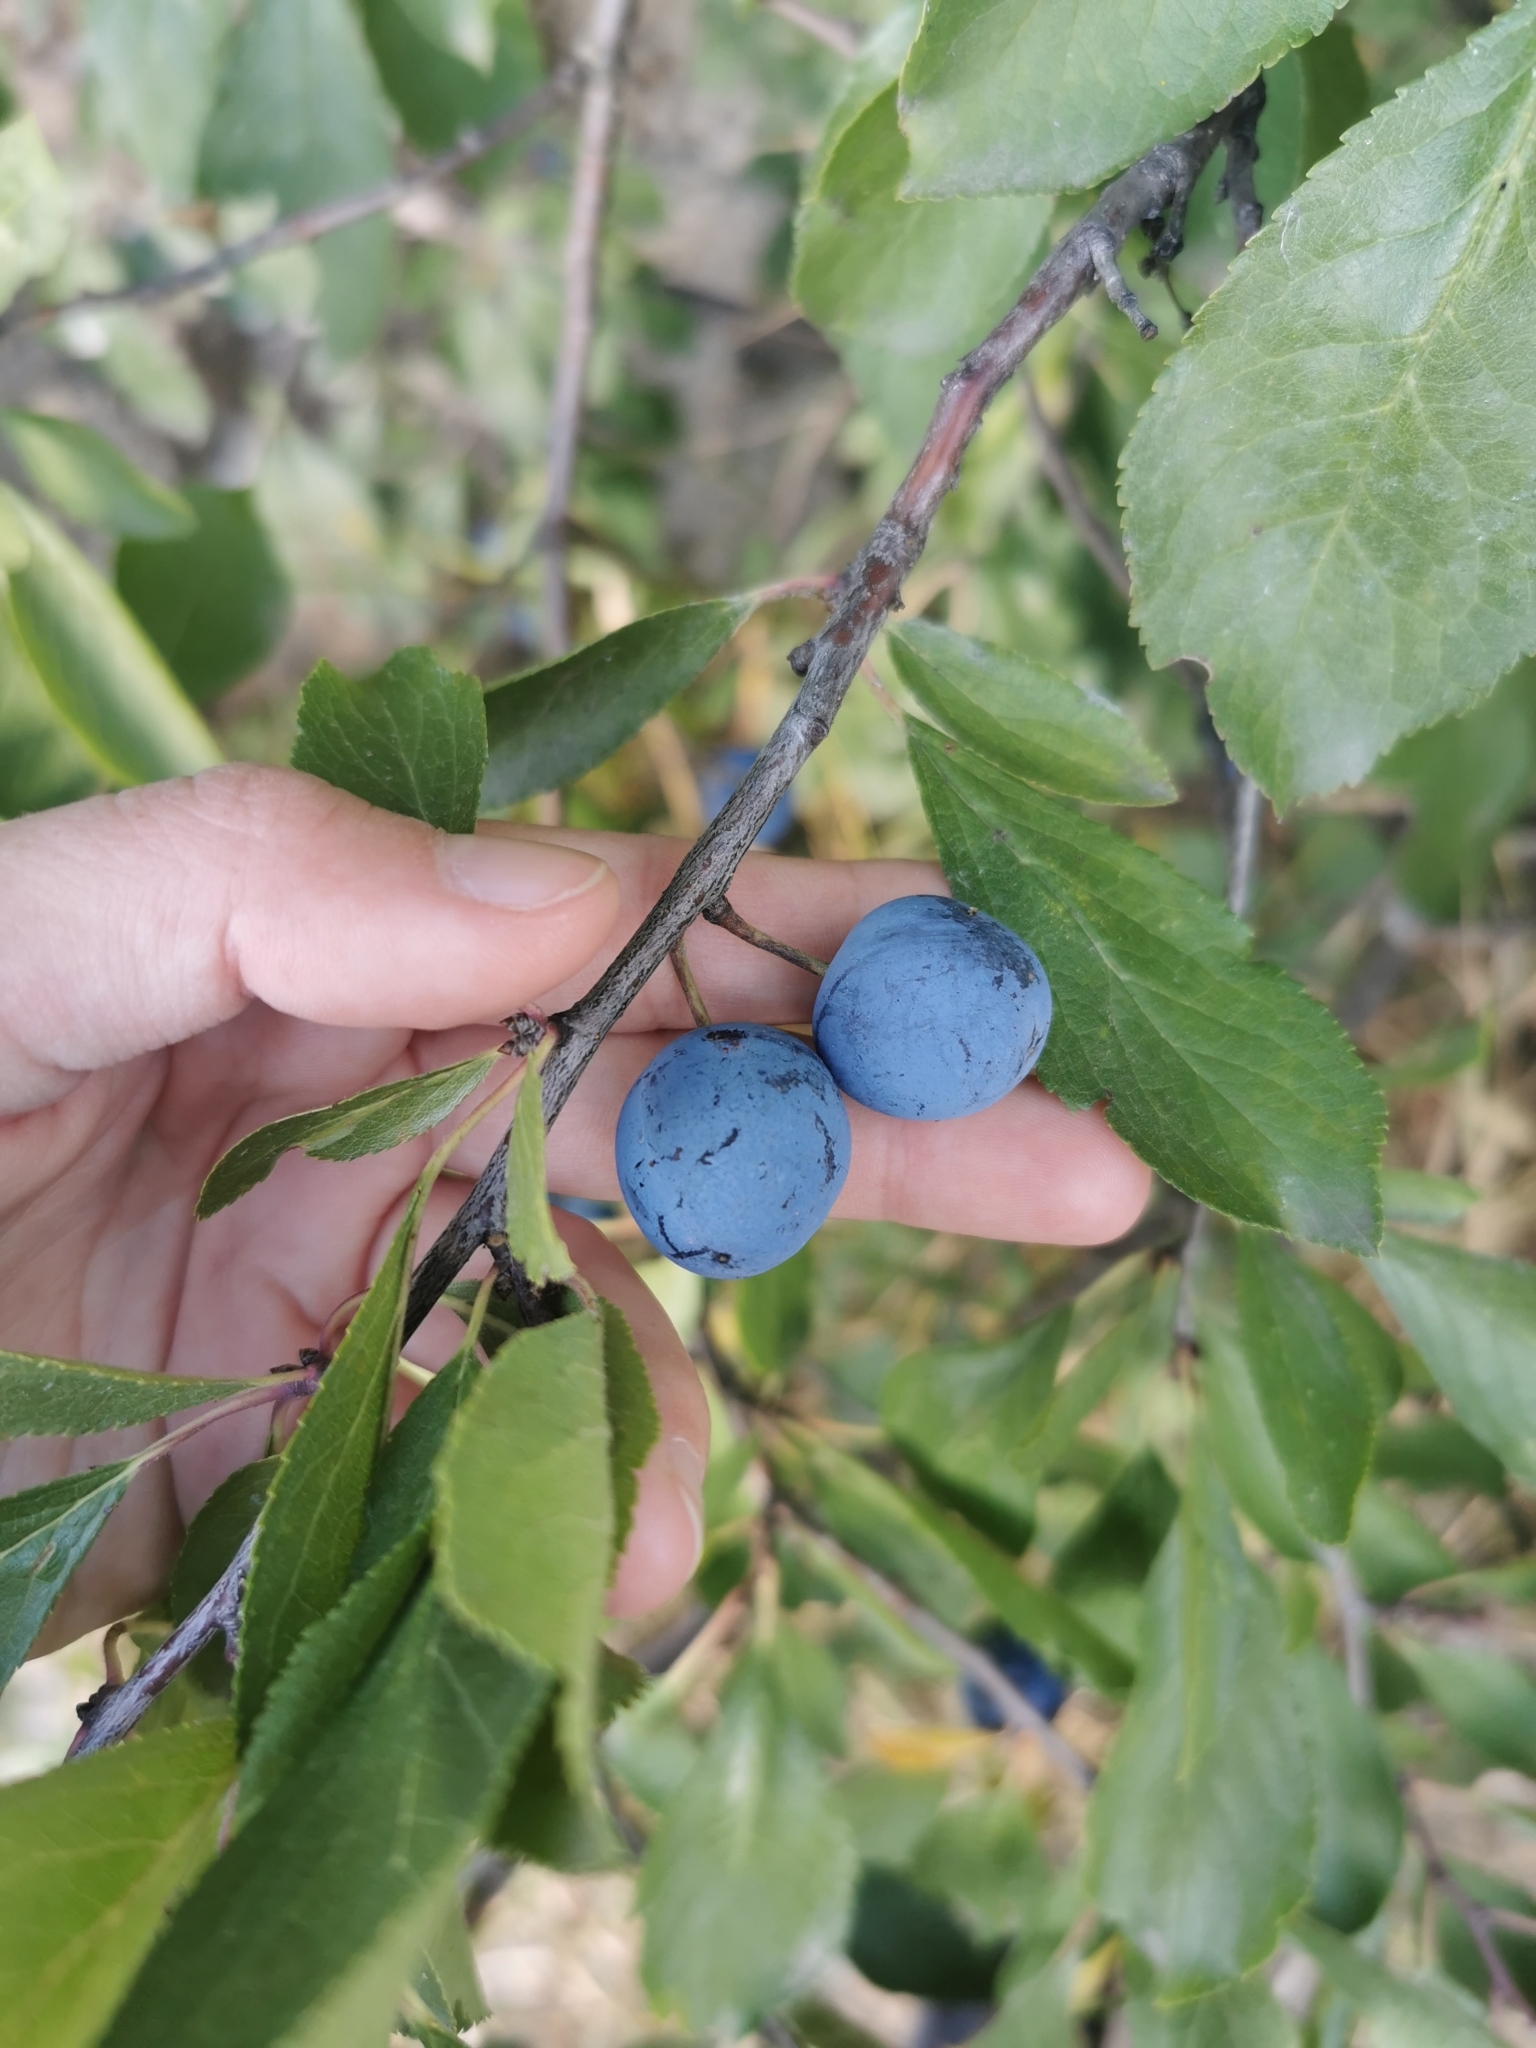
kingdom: Plantae
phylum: Tracheophyta
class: Magnoliopsida
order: Rosales
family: Rosaceae
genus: Prunus
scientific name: Prunus spinosa
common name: Blackthorn
